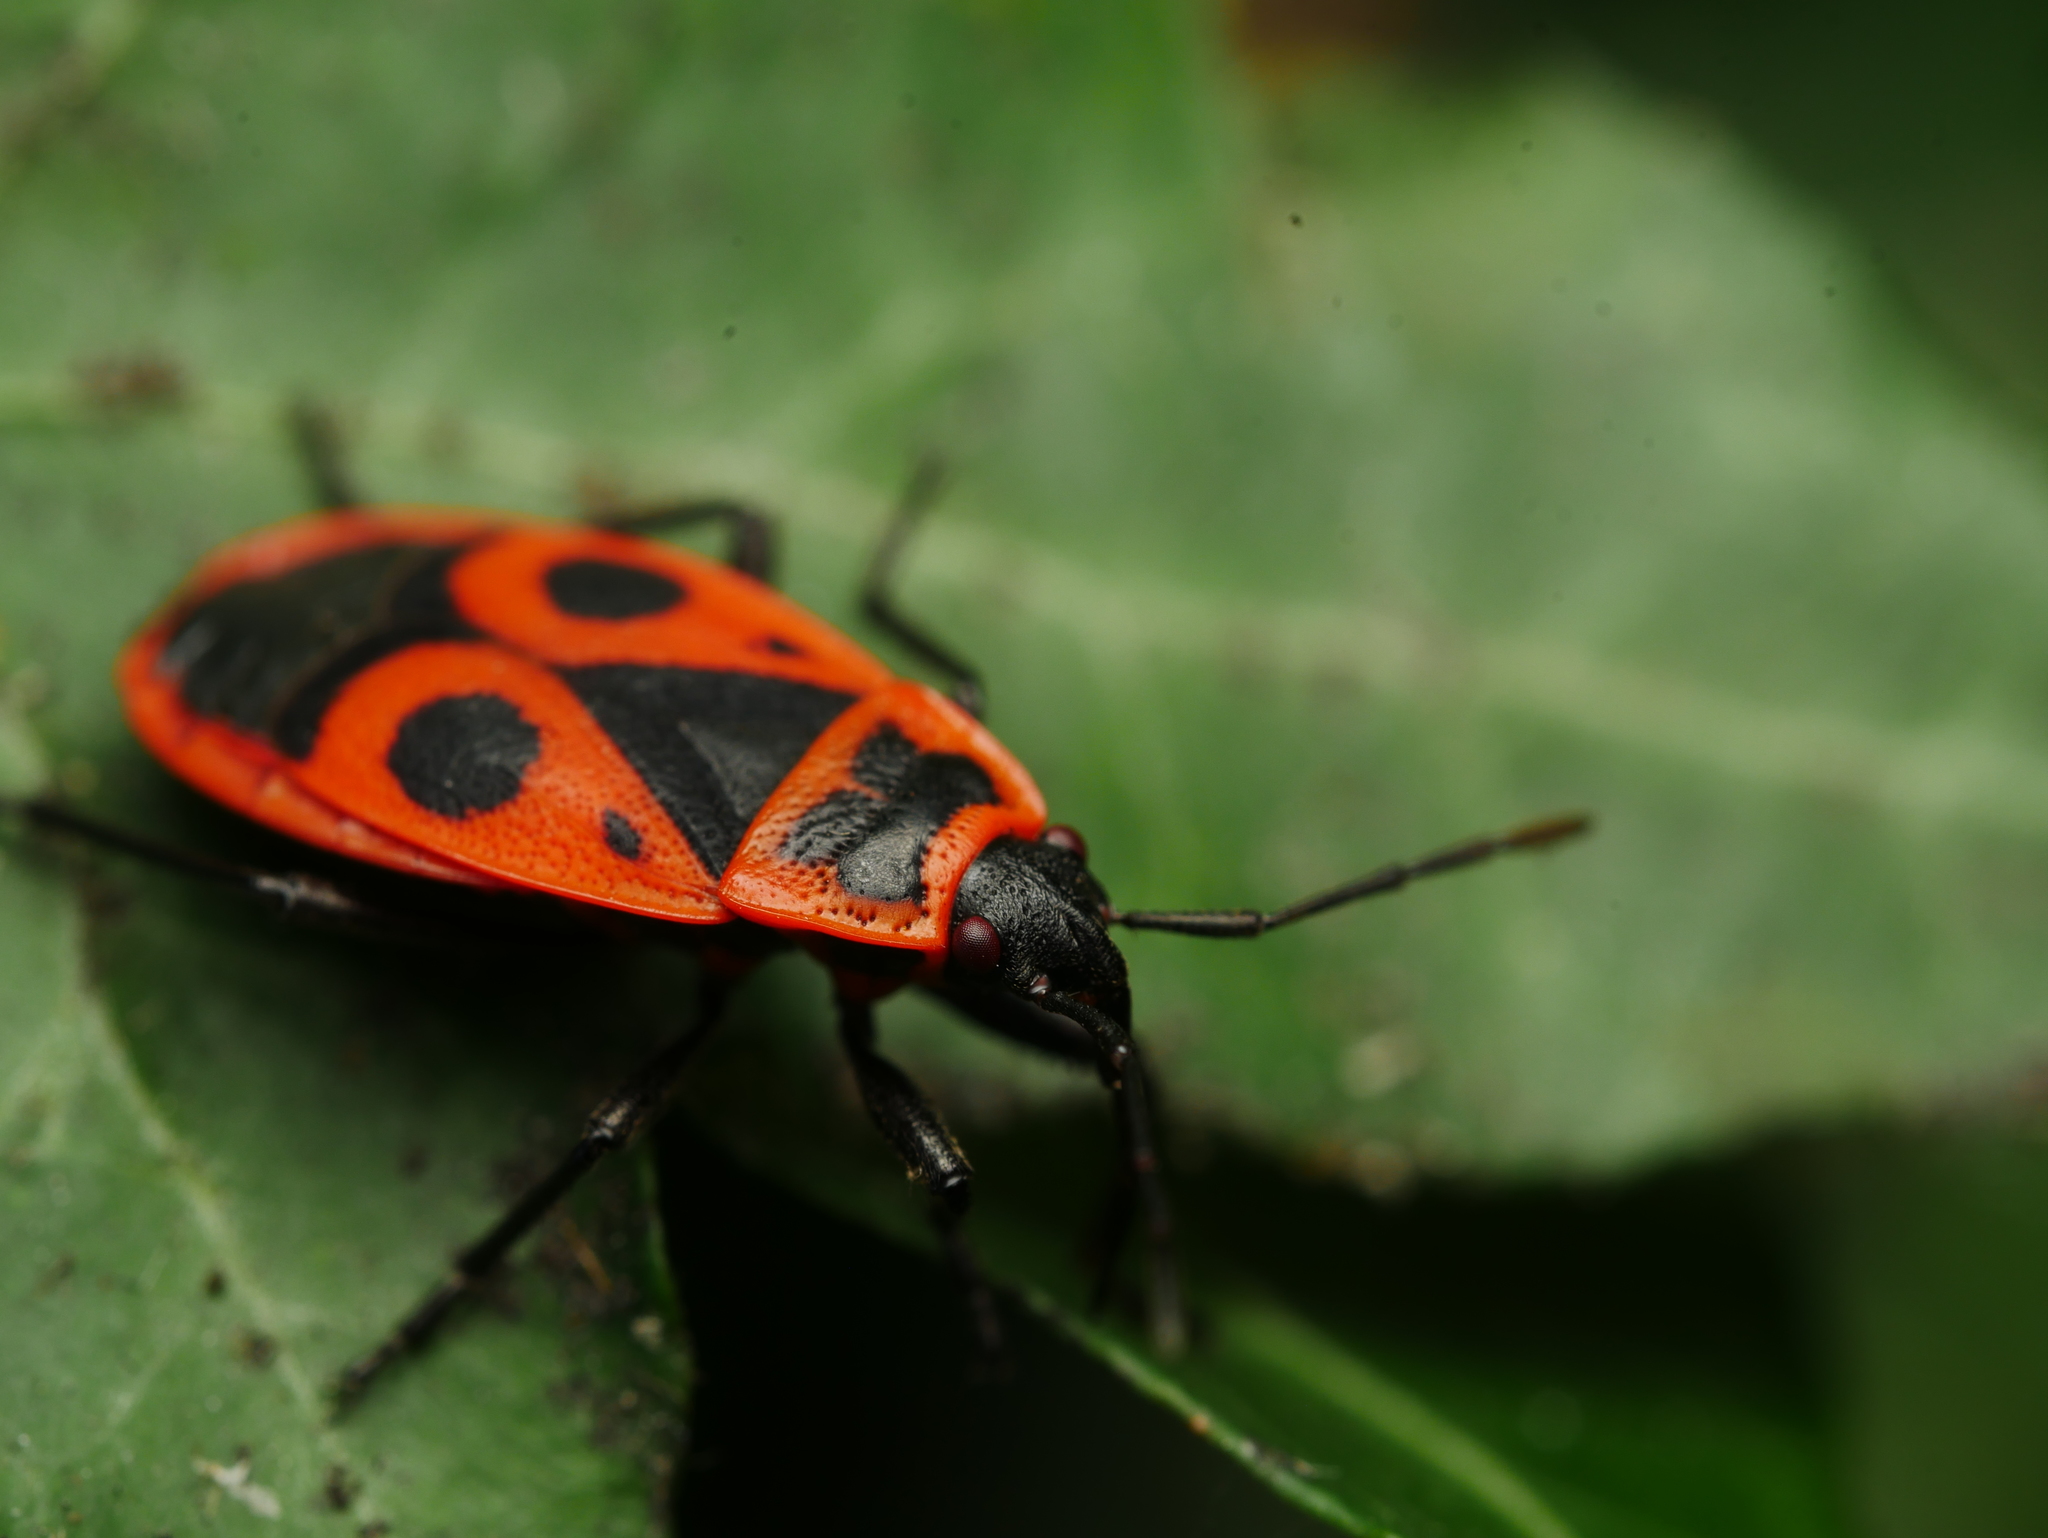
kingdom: Animalia
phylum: Arthropoda
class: Insecta
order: Hemiptera
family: Pyrrhocoridae
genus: Pyrrhocoris
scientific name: Pyrrhocoris apterus
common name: Firebug
